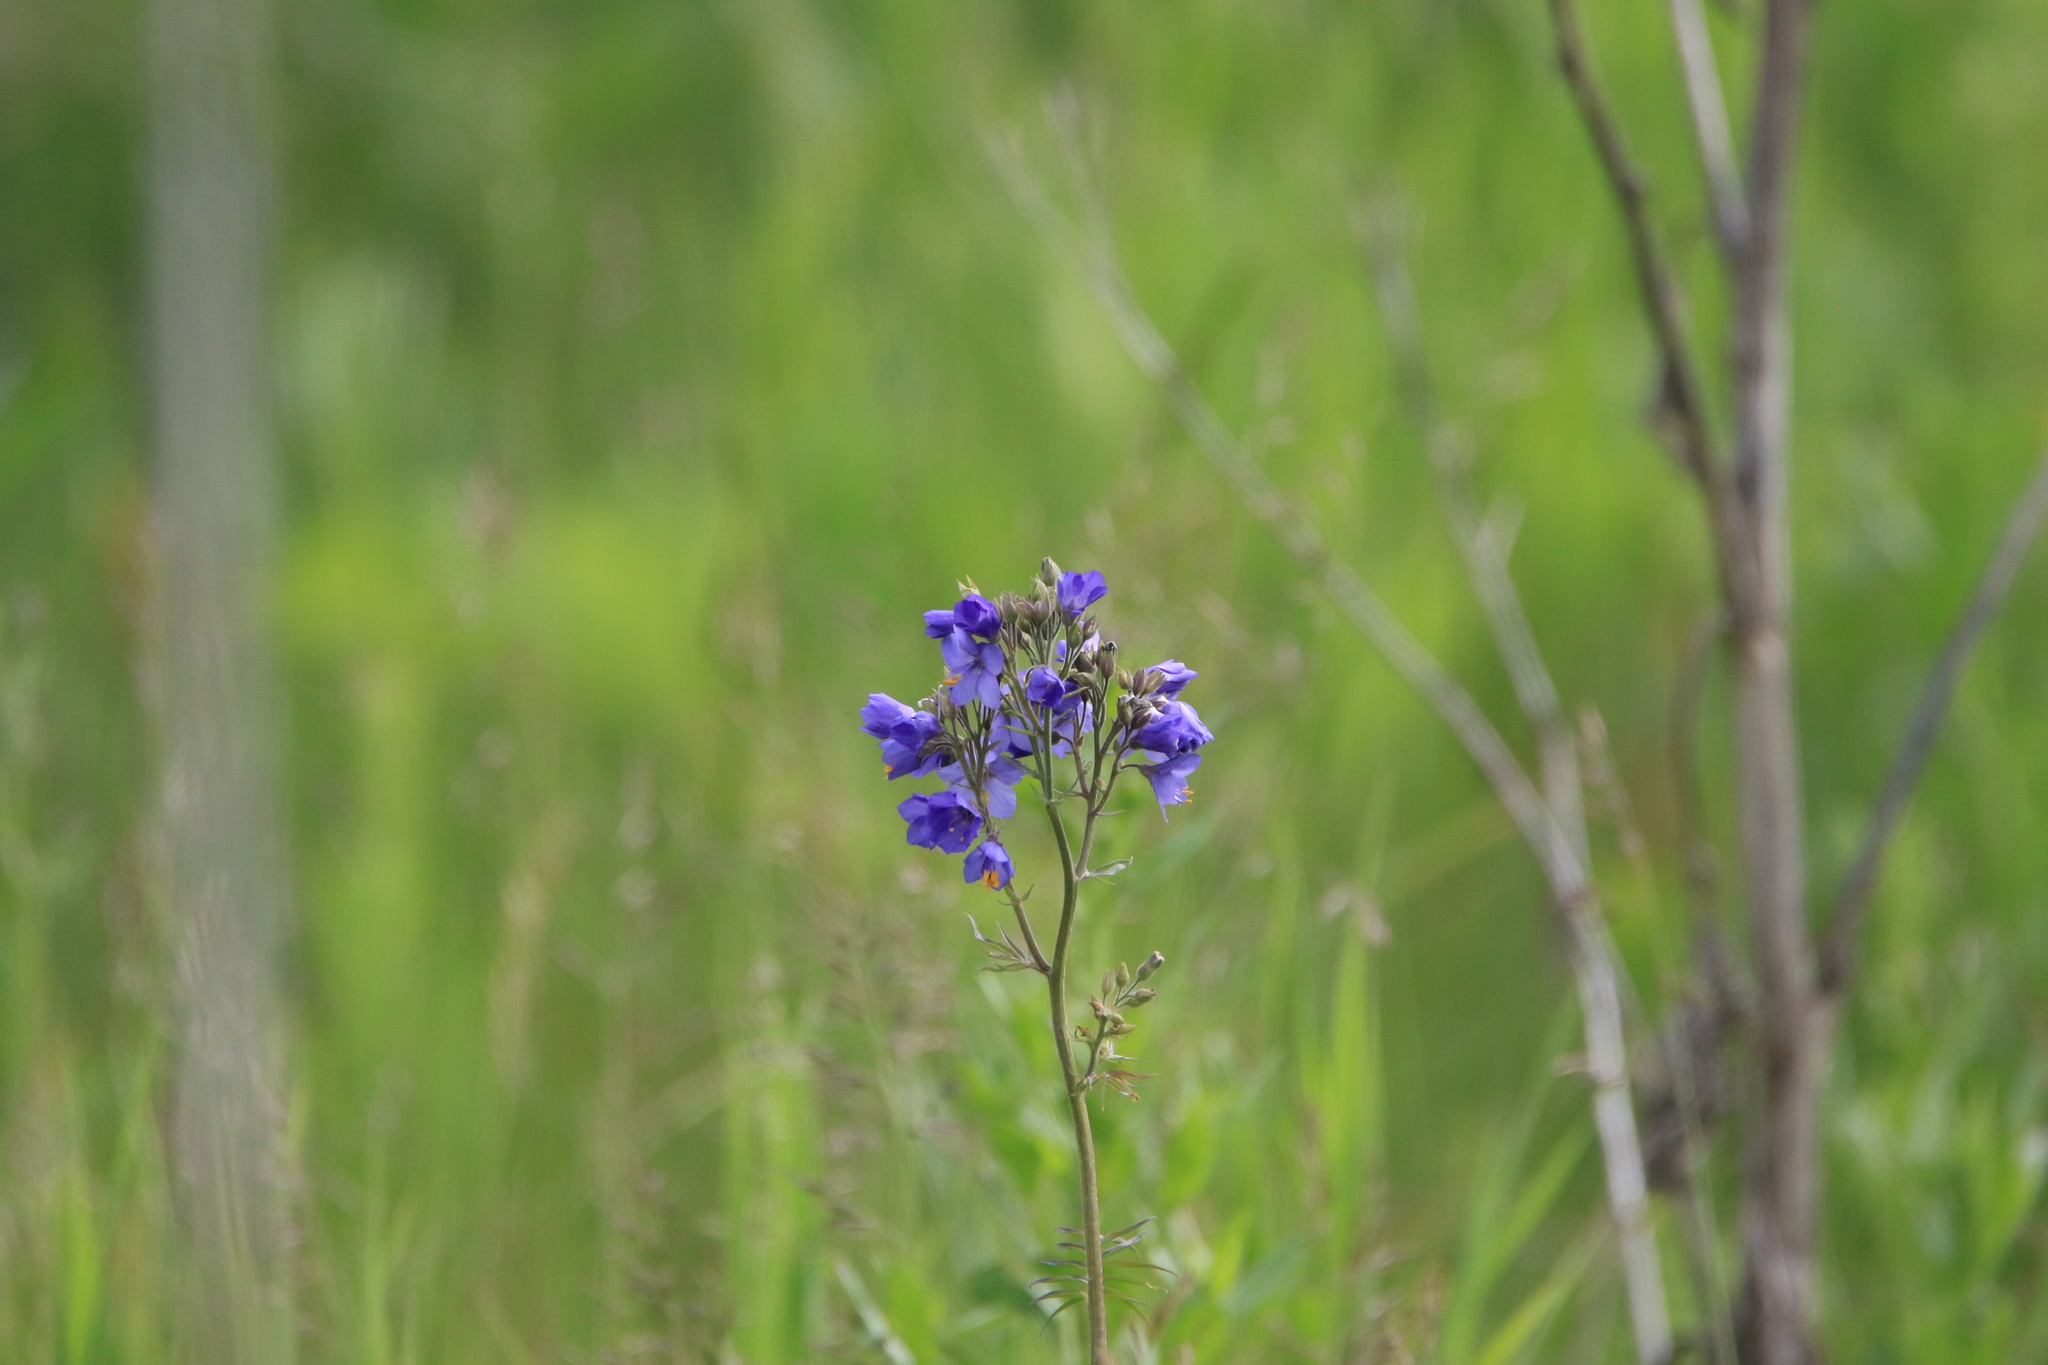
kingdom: Plantae
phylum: Tracheophyta
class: Magnoliopsida
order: Ericales
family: Polemoniaceae
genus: Polemonium
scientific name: Polemonium caeruleum
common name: Jacob's-ladder
